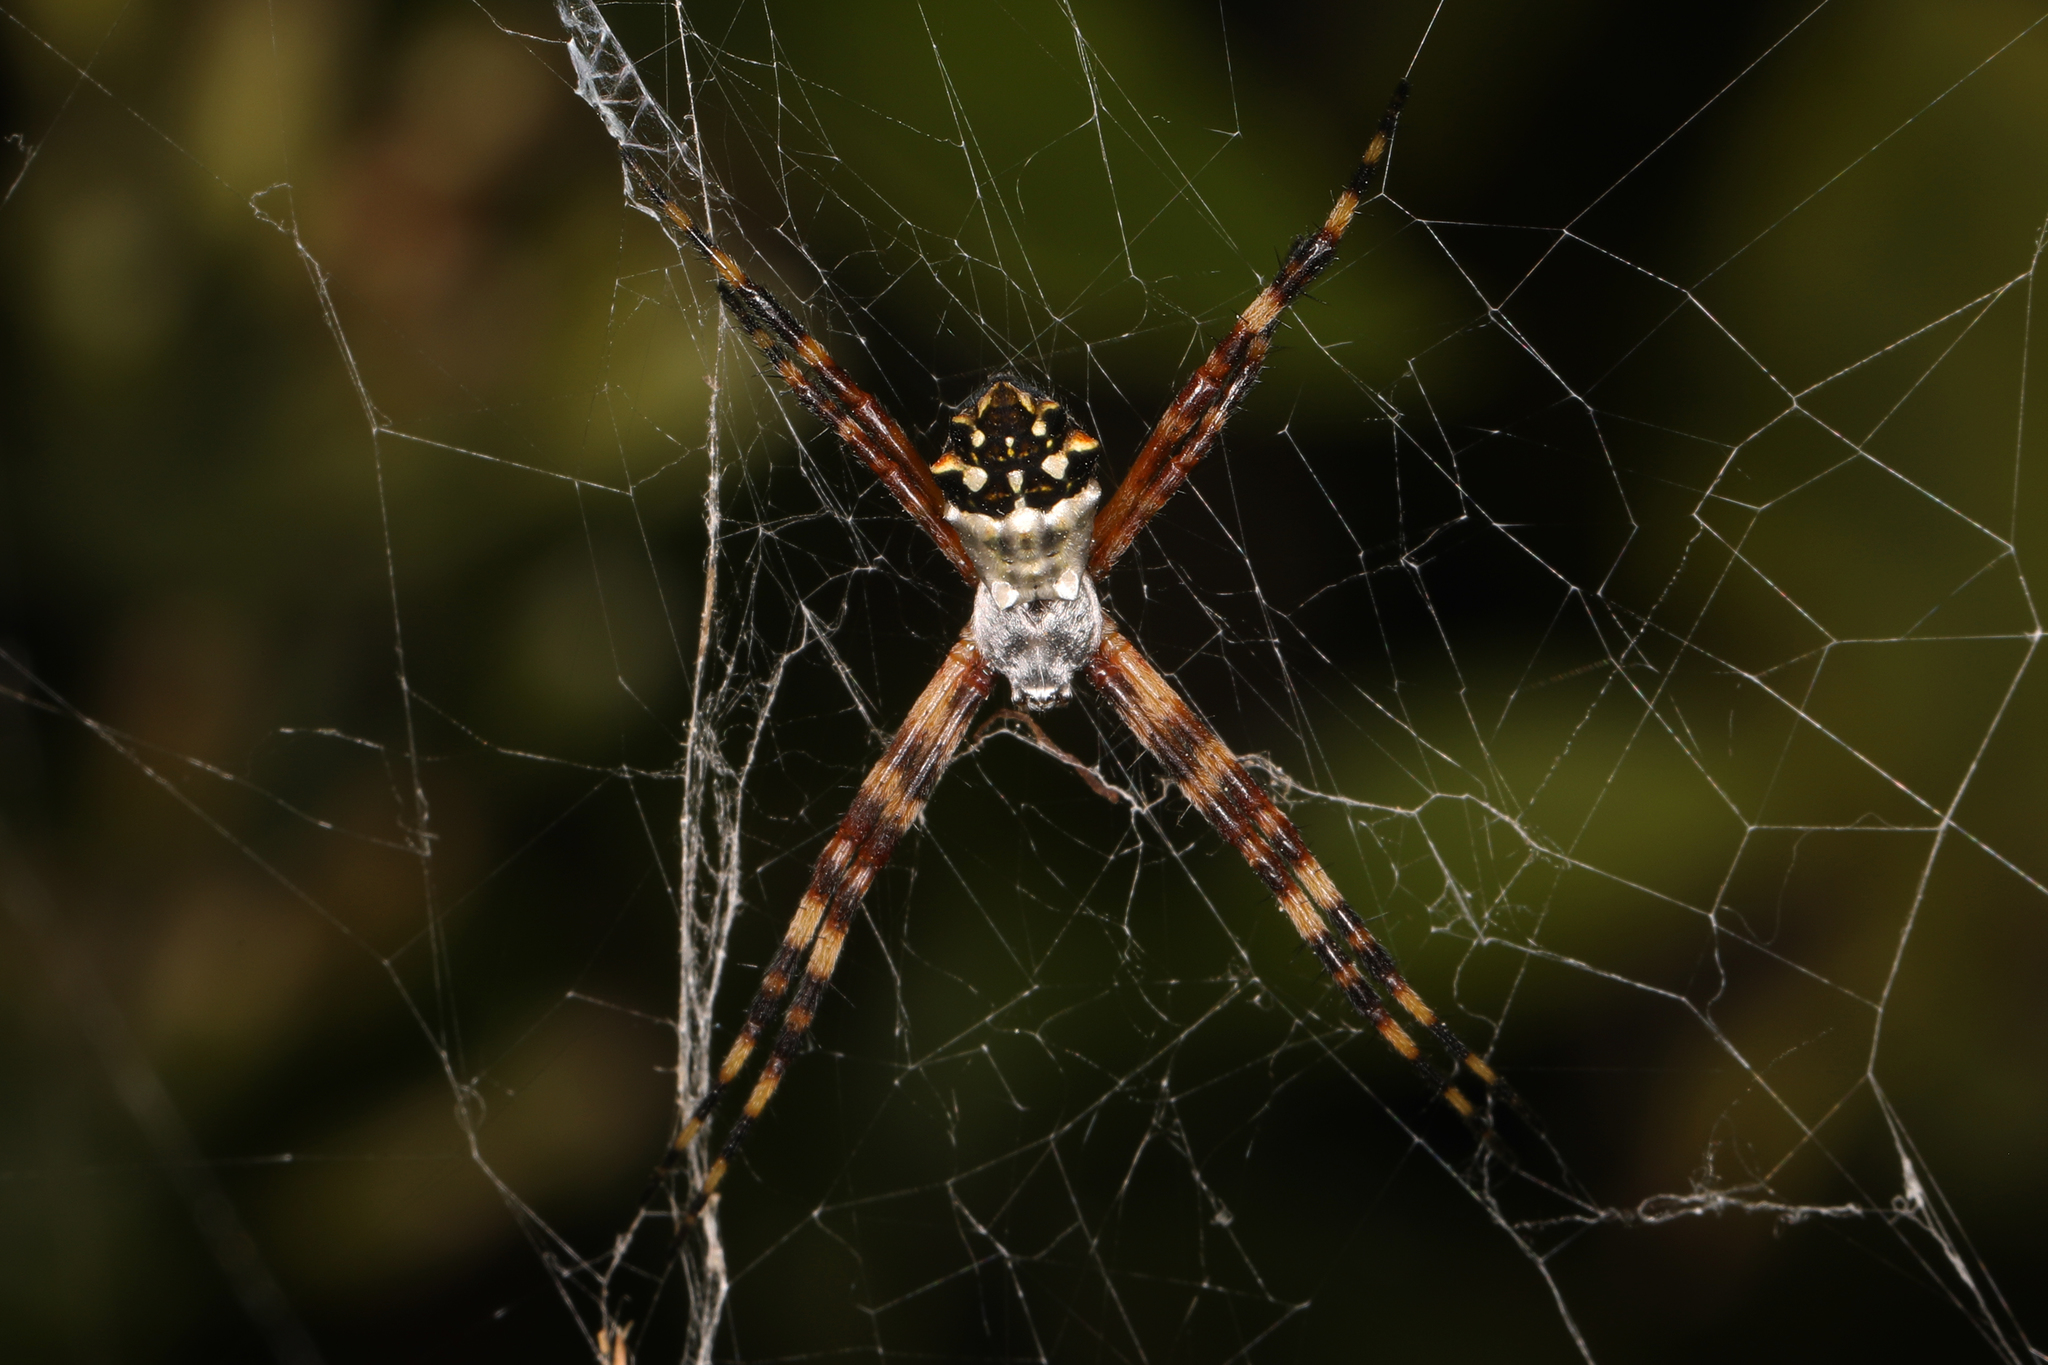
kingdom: Animalia
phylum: Arthropoda
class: Arachnida
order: Araneae
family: Araneidae
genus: Argiope
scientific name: Argiope argentata
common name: Orb weavers
